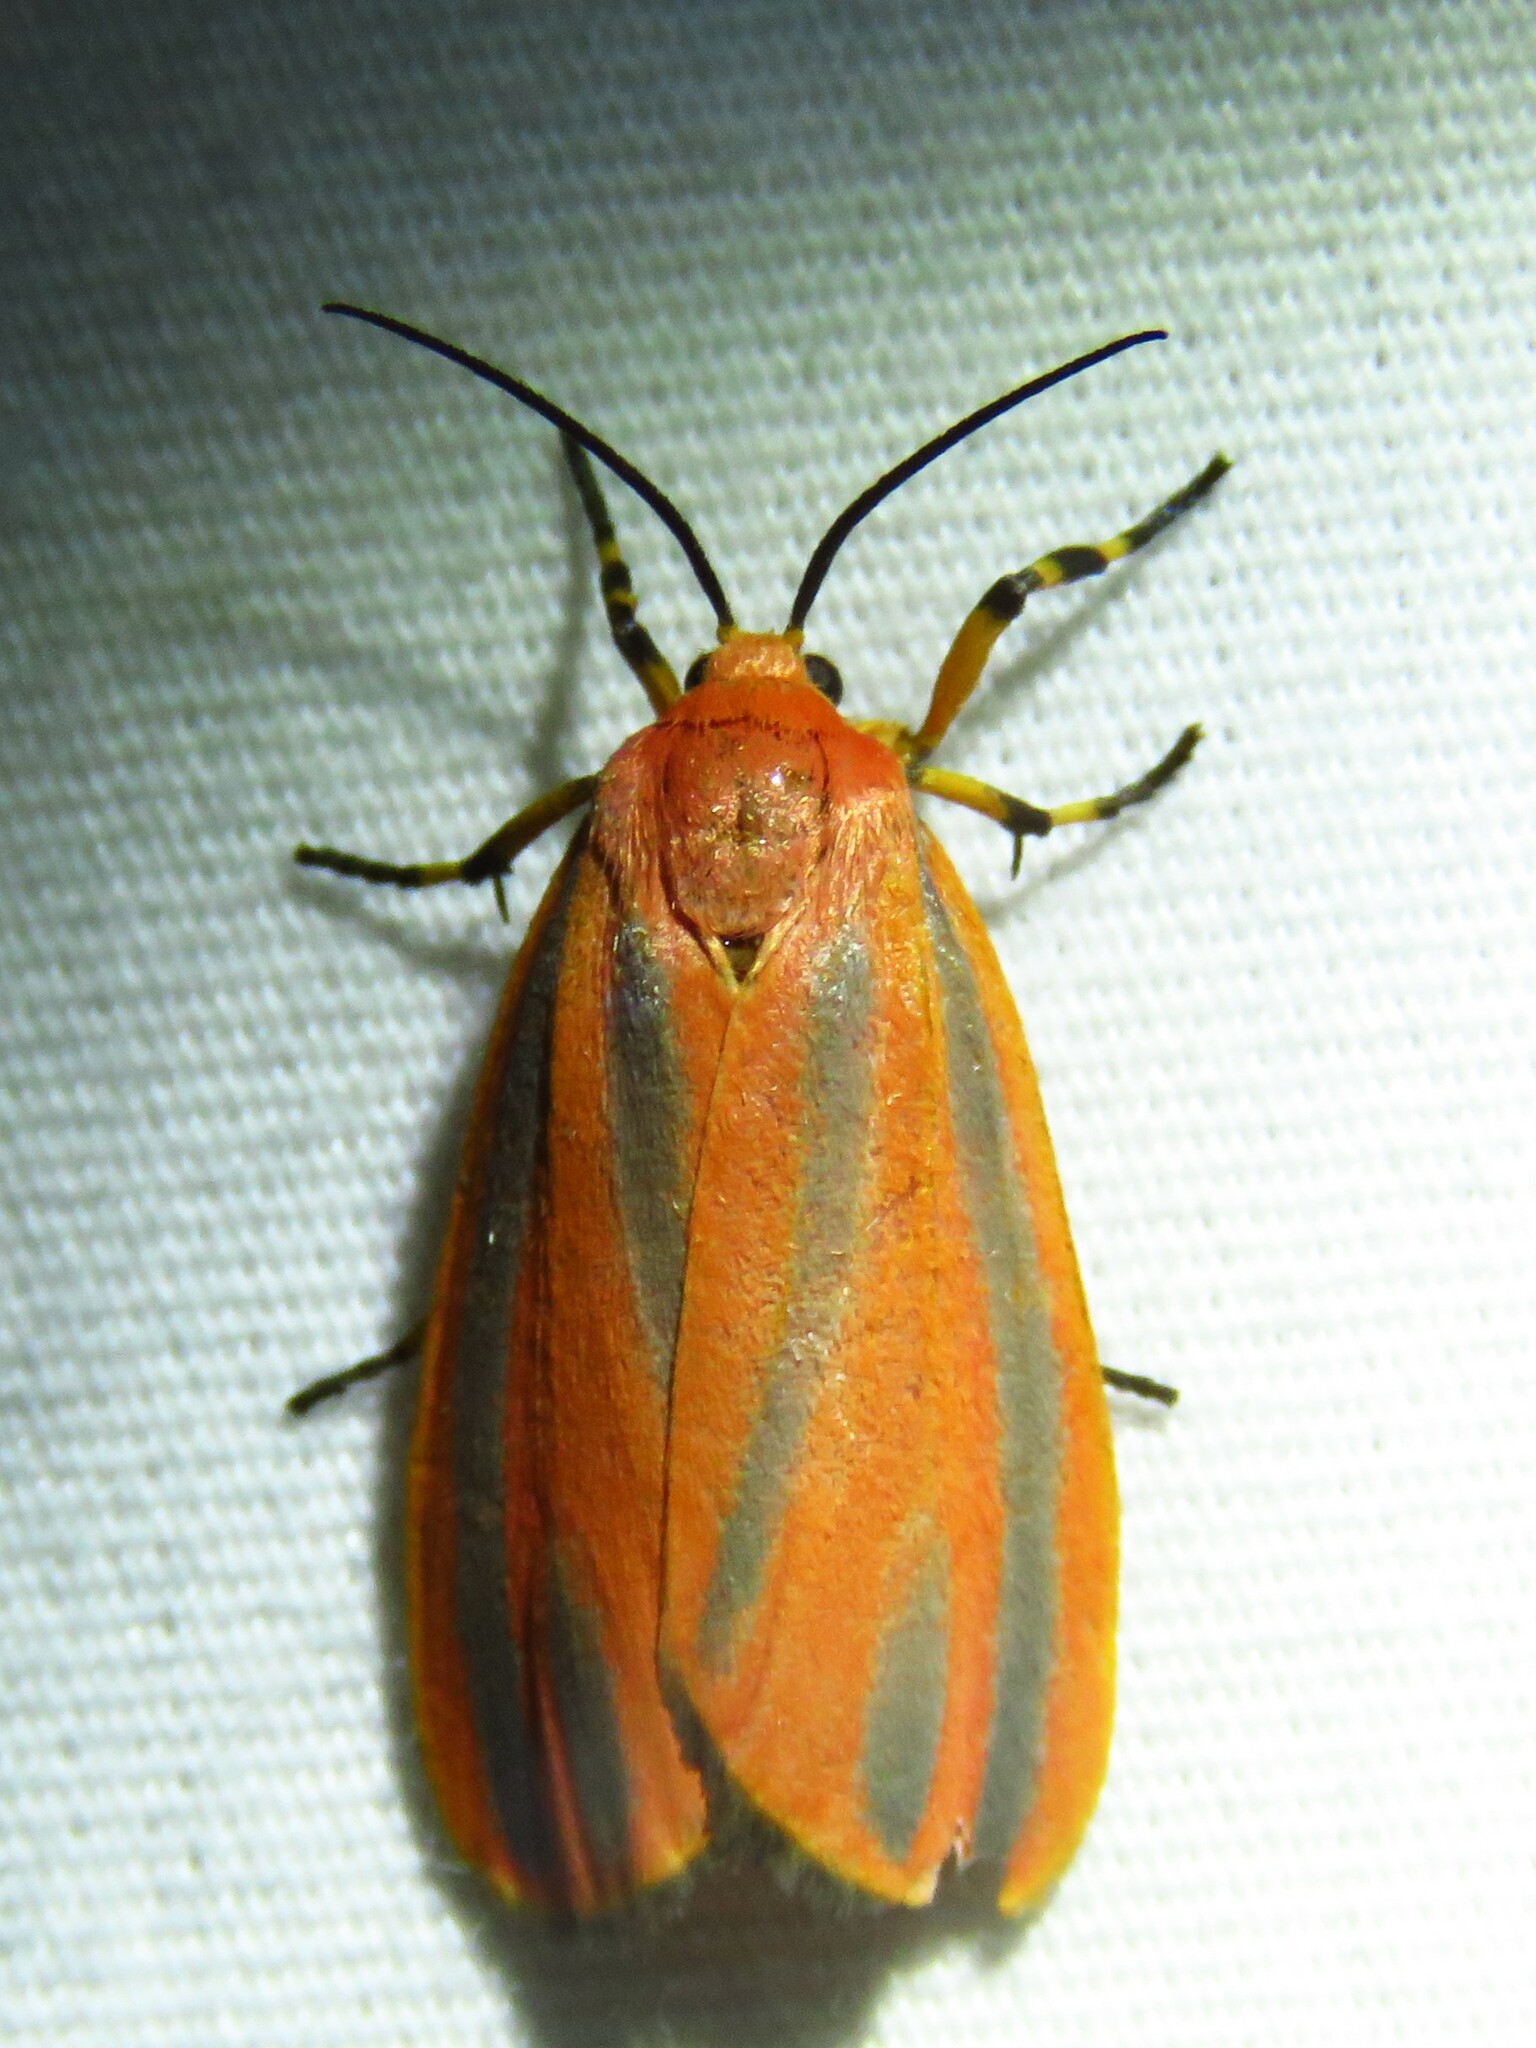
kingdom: Animalia
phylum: Arthropoda
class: Insecta
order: Lepidoptera
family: Erebidae
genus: Hypoprepia
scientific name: Hypoprepia fucosa
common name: Painted lichen moth
